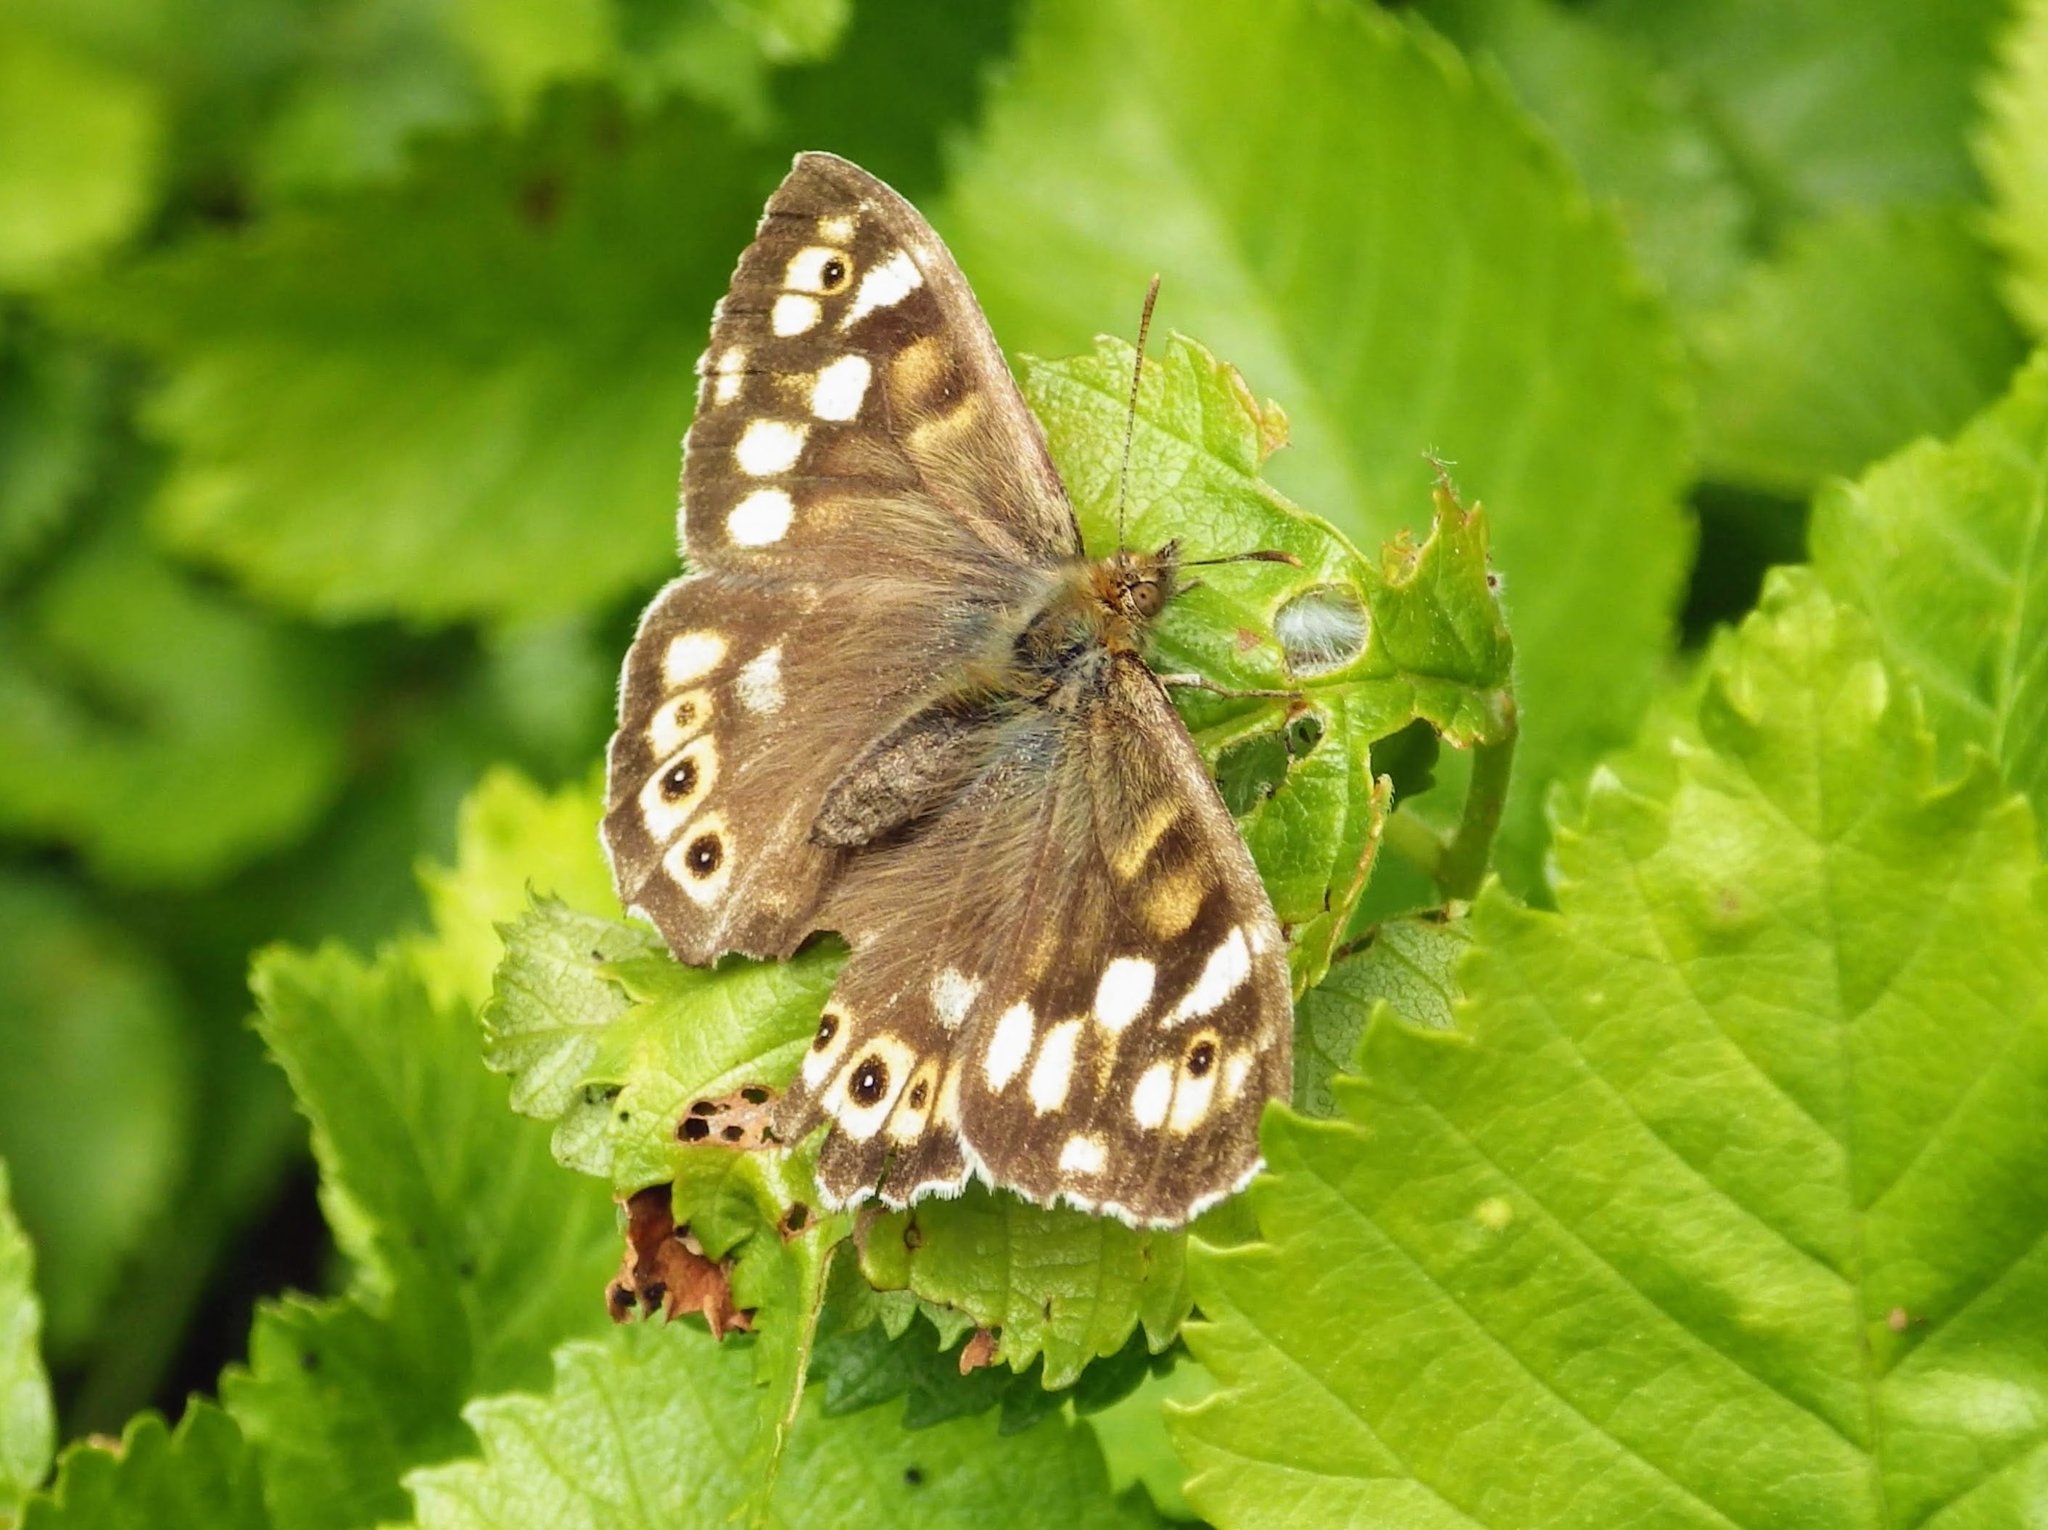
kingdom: Animalia
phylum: Arthropoda
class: Insecta
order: Lepidoptera
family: Nymphalidae
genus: Pararge
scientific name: Pararge aegeria
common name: Speckled wood
